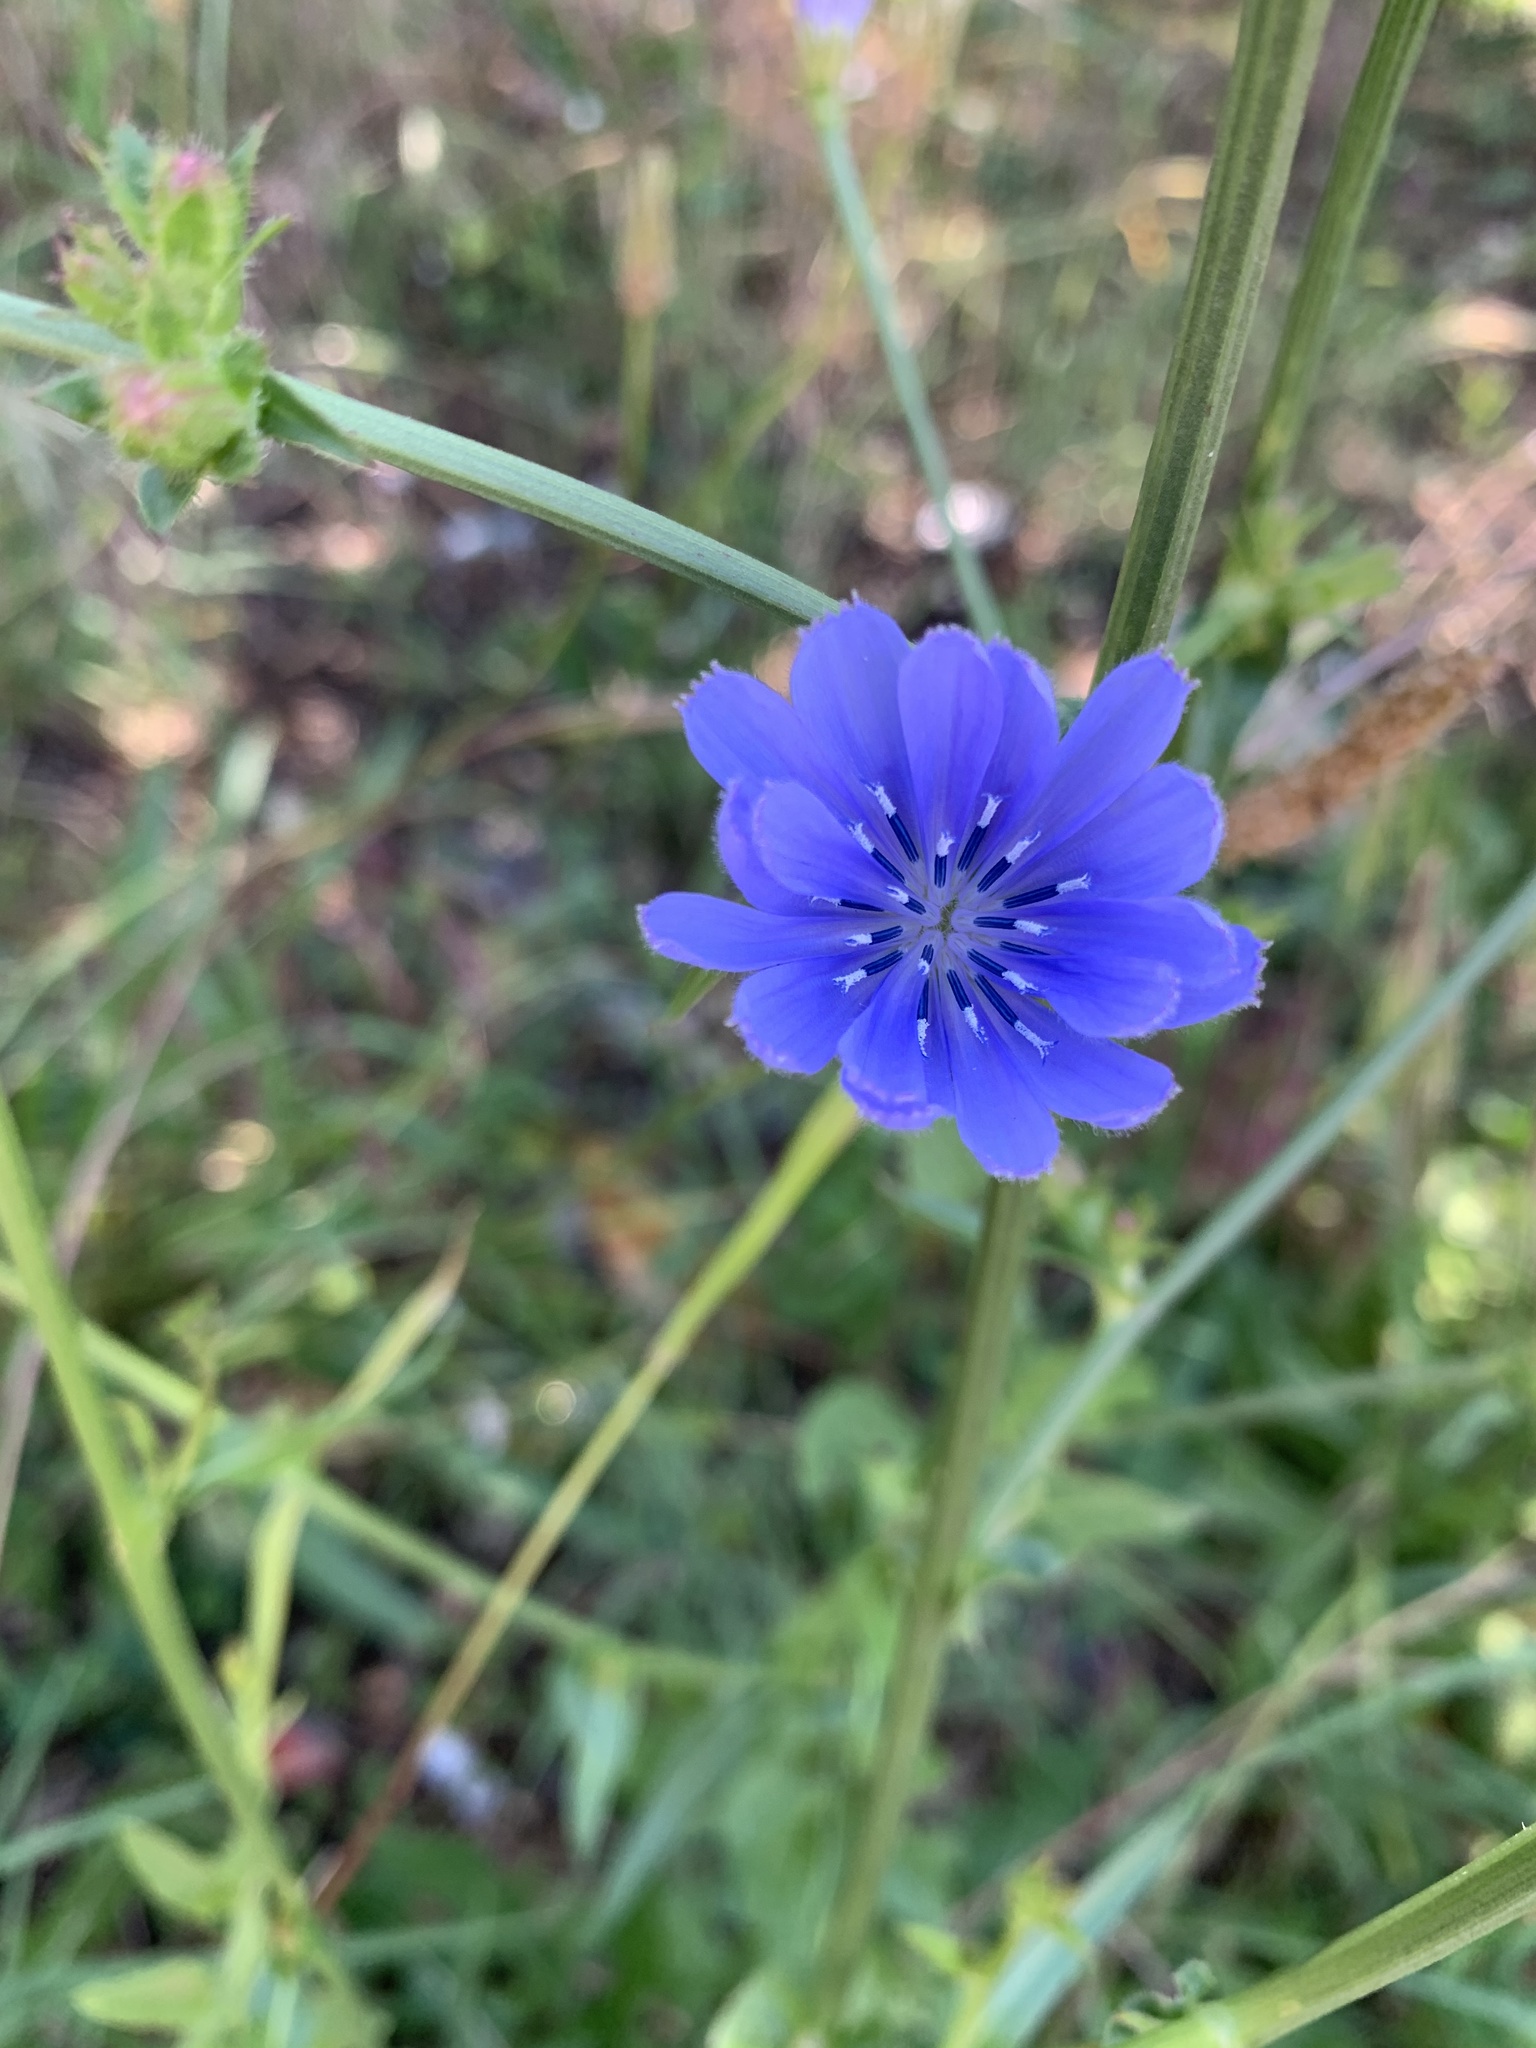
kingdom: Plantae
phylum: Tracheophyta
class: Magnoliopsida
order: Asterales
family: Asteraceae
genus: Cichorium
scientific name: Cichorium intybus
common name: Chicory
